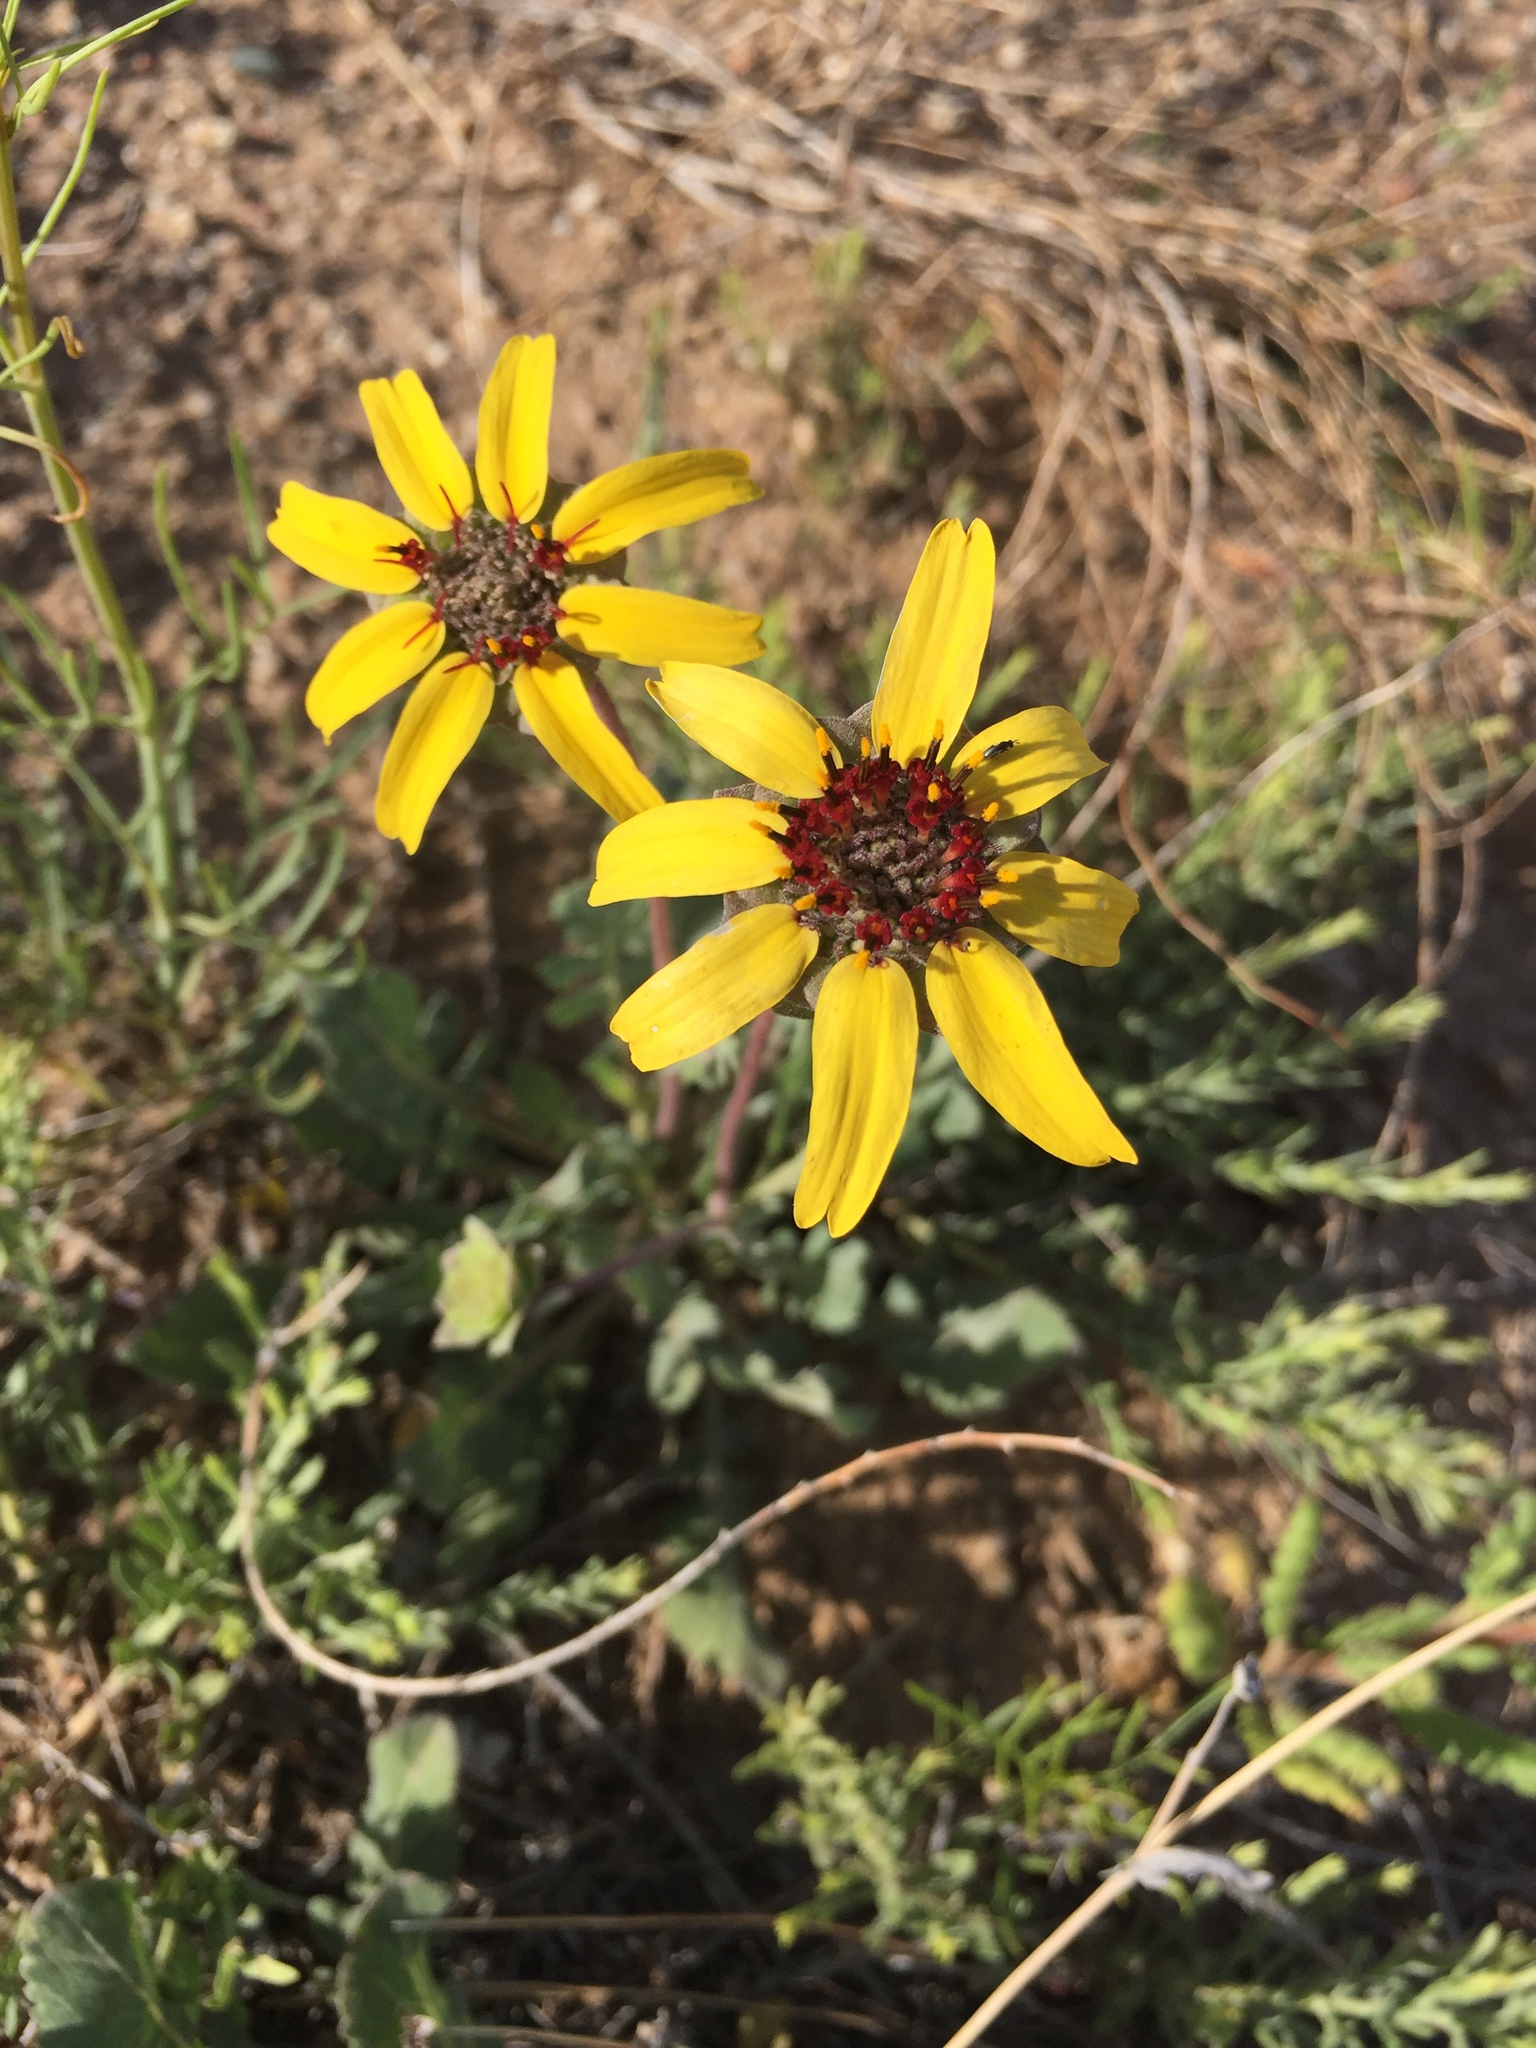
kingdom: Plantae
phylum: Tracheophyta
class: Magnoliopsida
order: Asterales
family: Asteraceae
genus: Berlandiera
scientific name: Berlandiera lyrata
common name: Chocolate-flower
